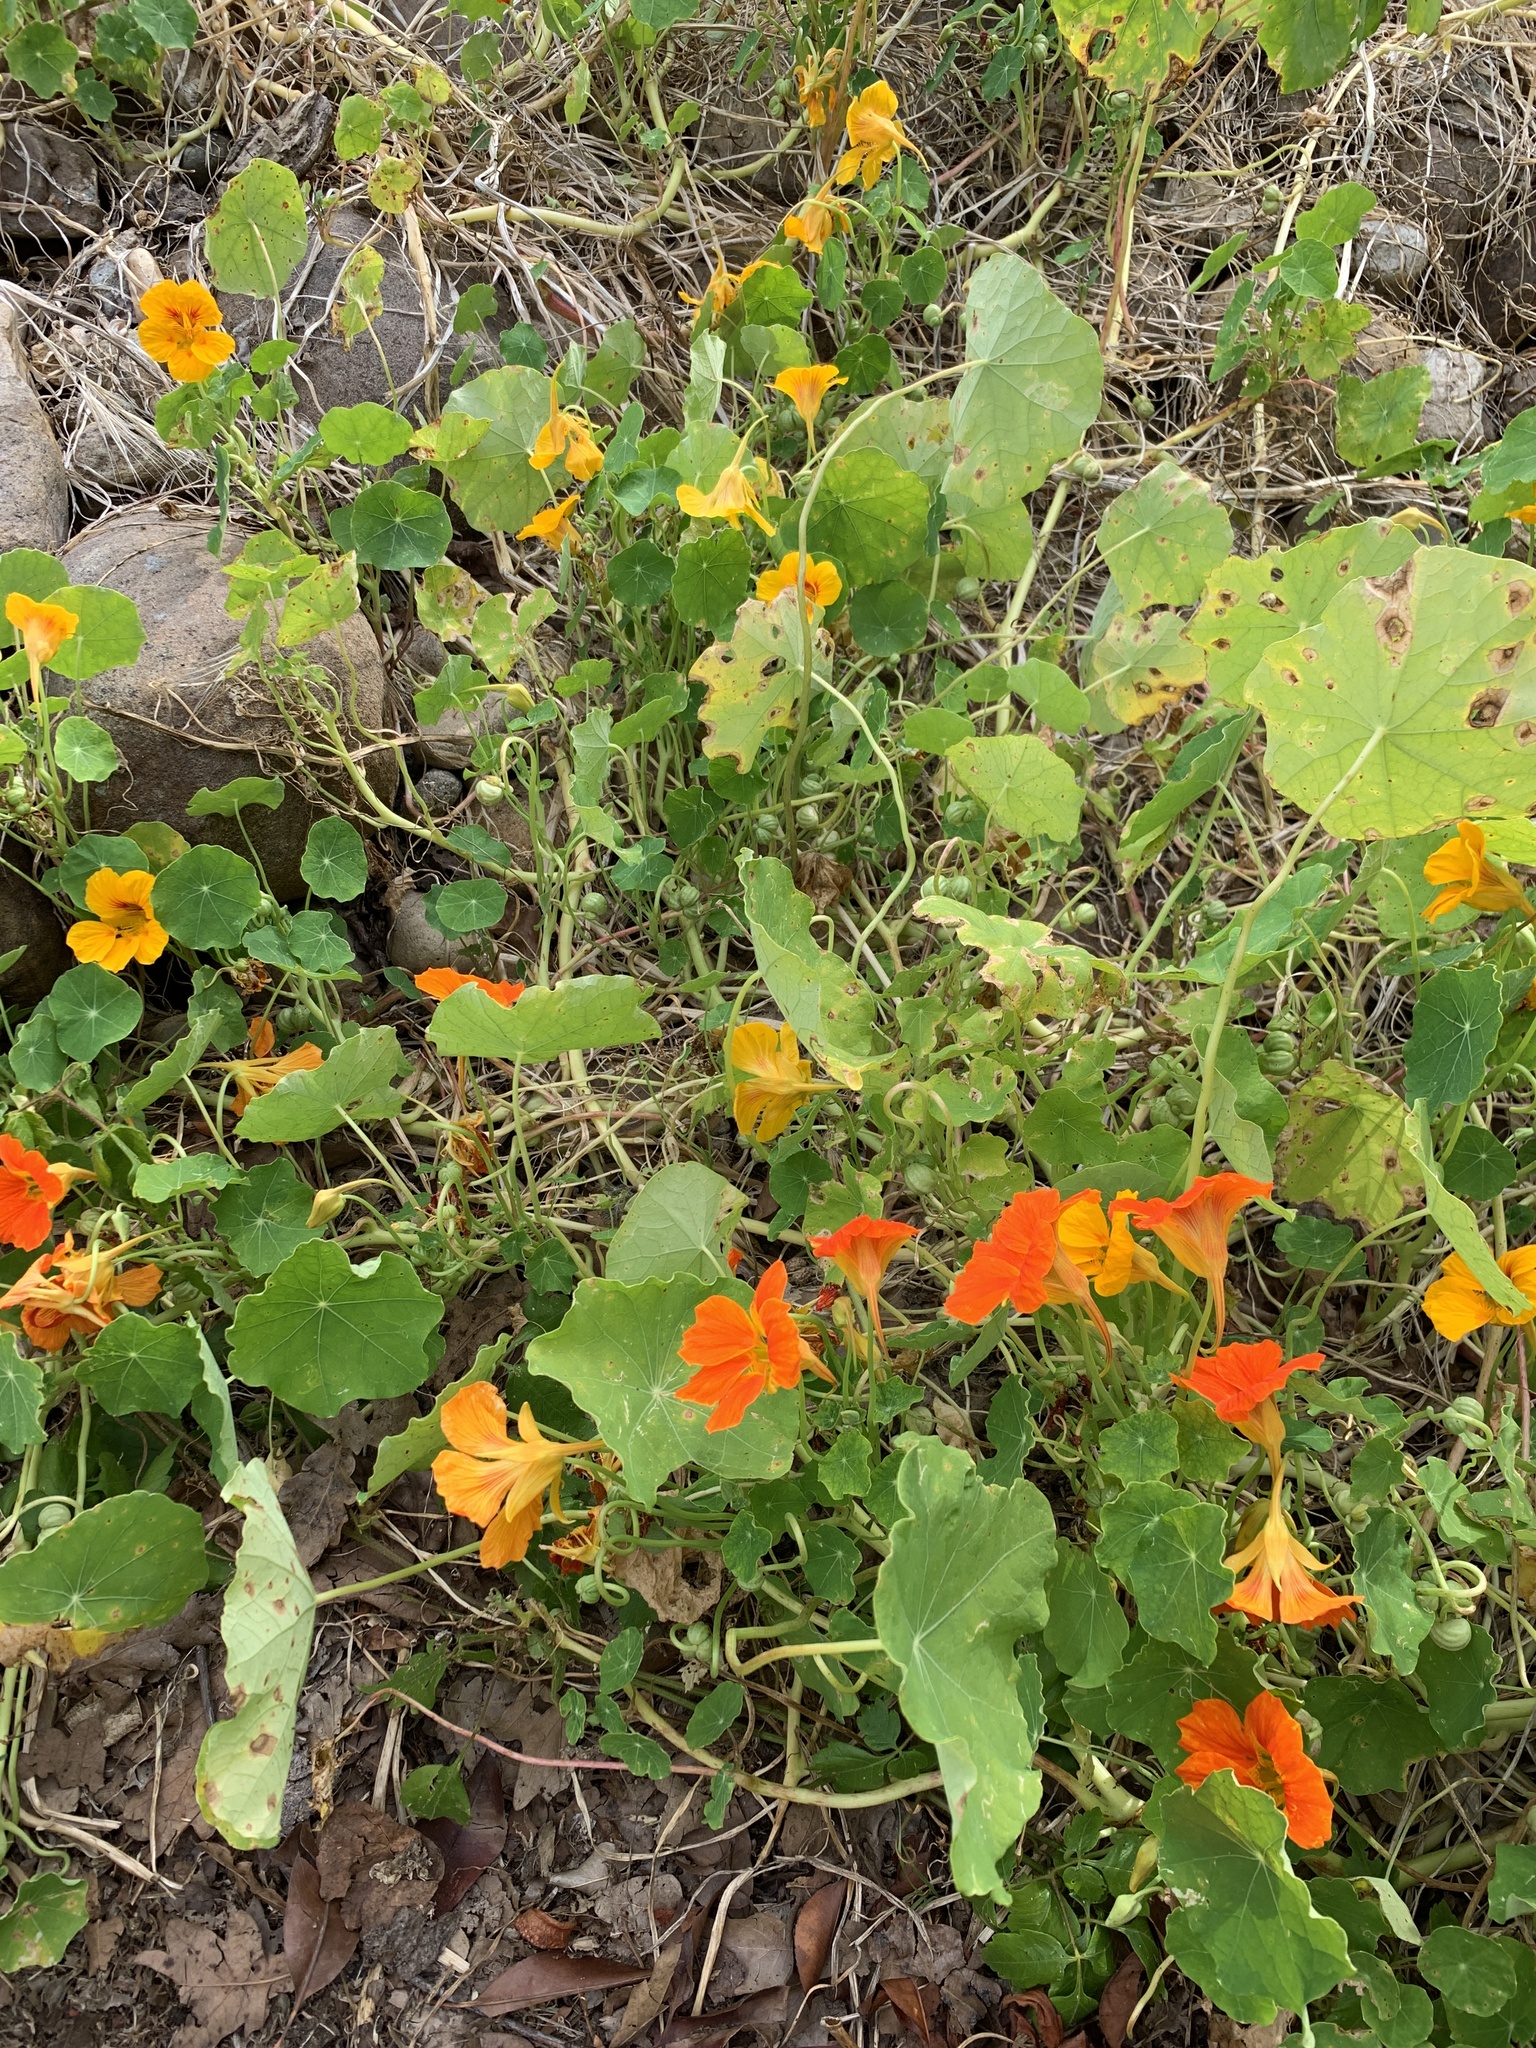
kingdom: Plantae
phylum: Tracheophyta
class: Magnoliopsida
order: Brassicales
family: Tropaeolaceae
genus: Tropaeolum
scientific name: Tropaeolum majus
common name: Nasturtium
